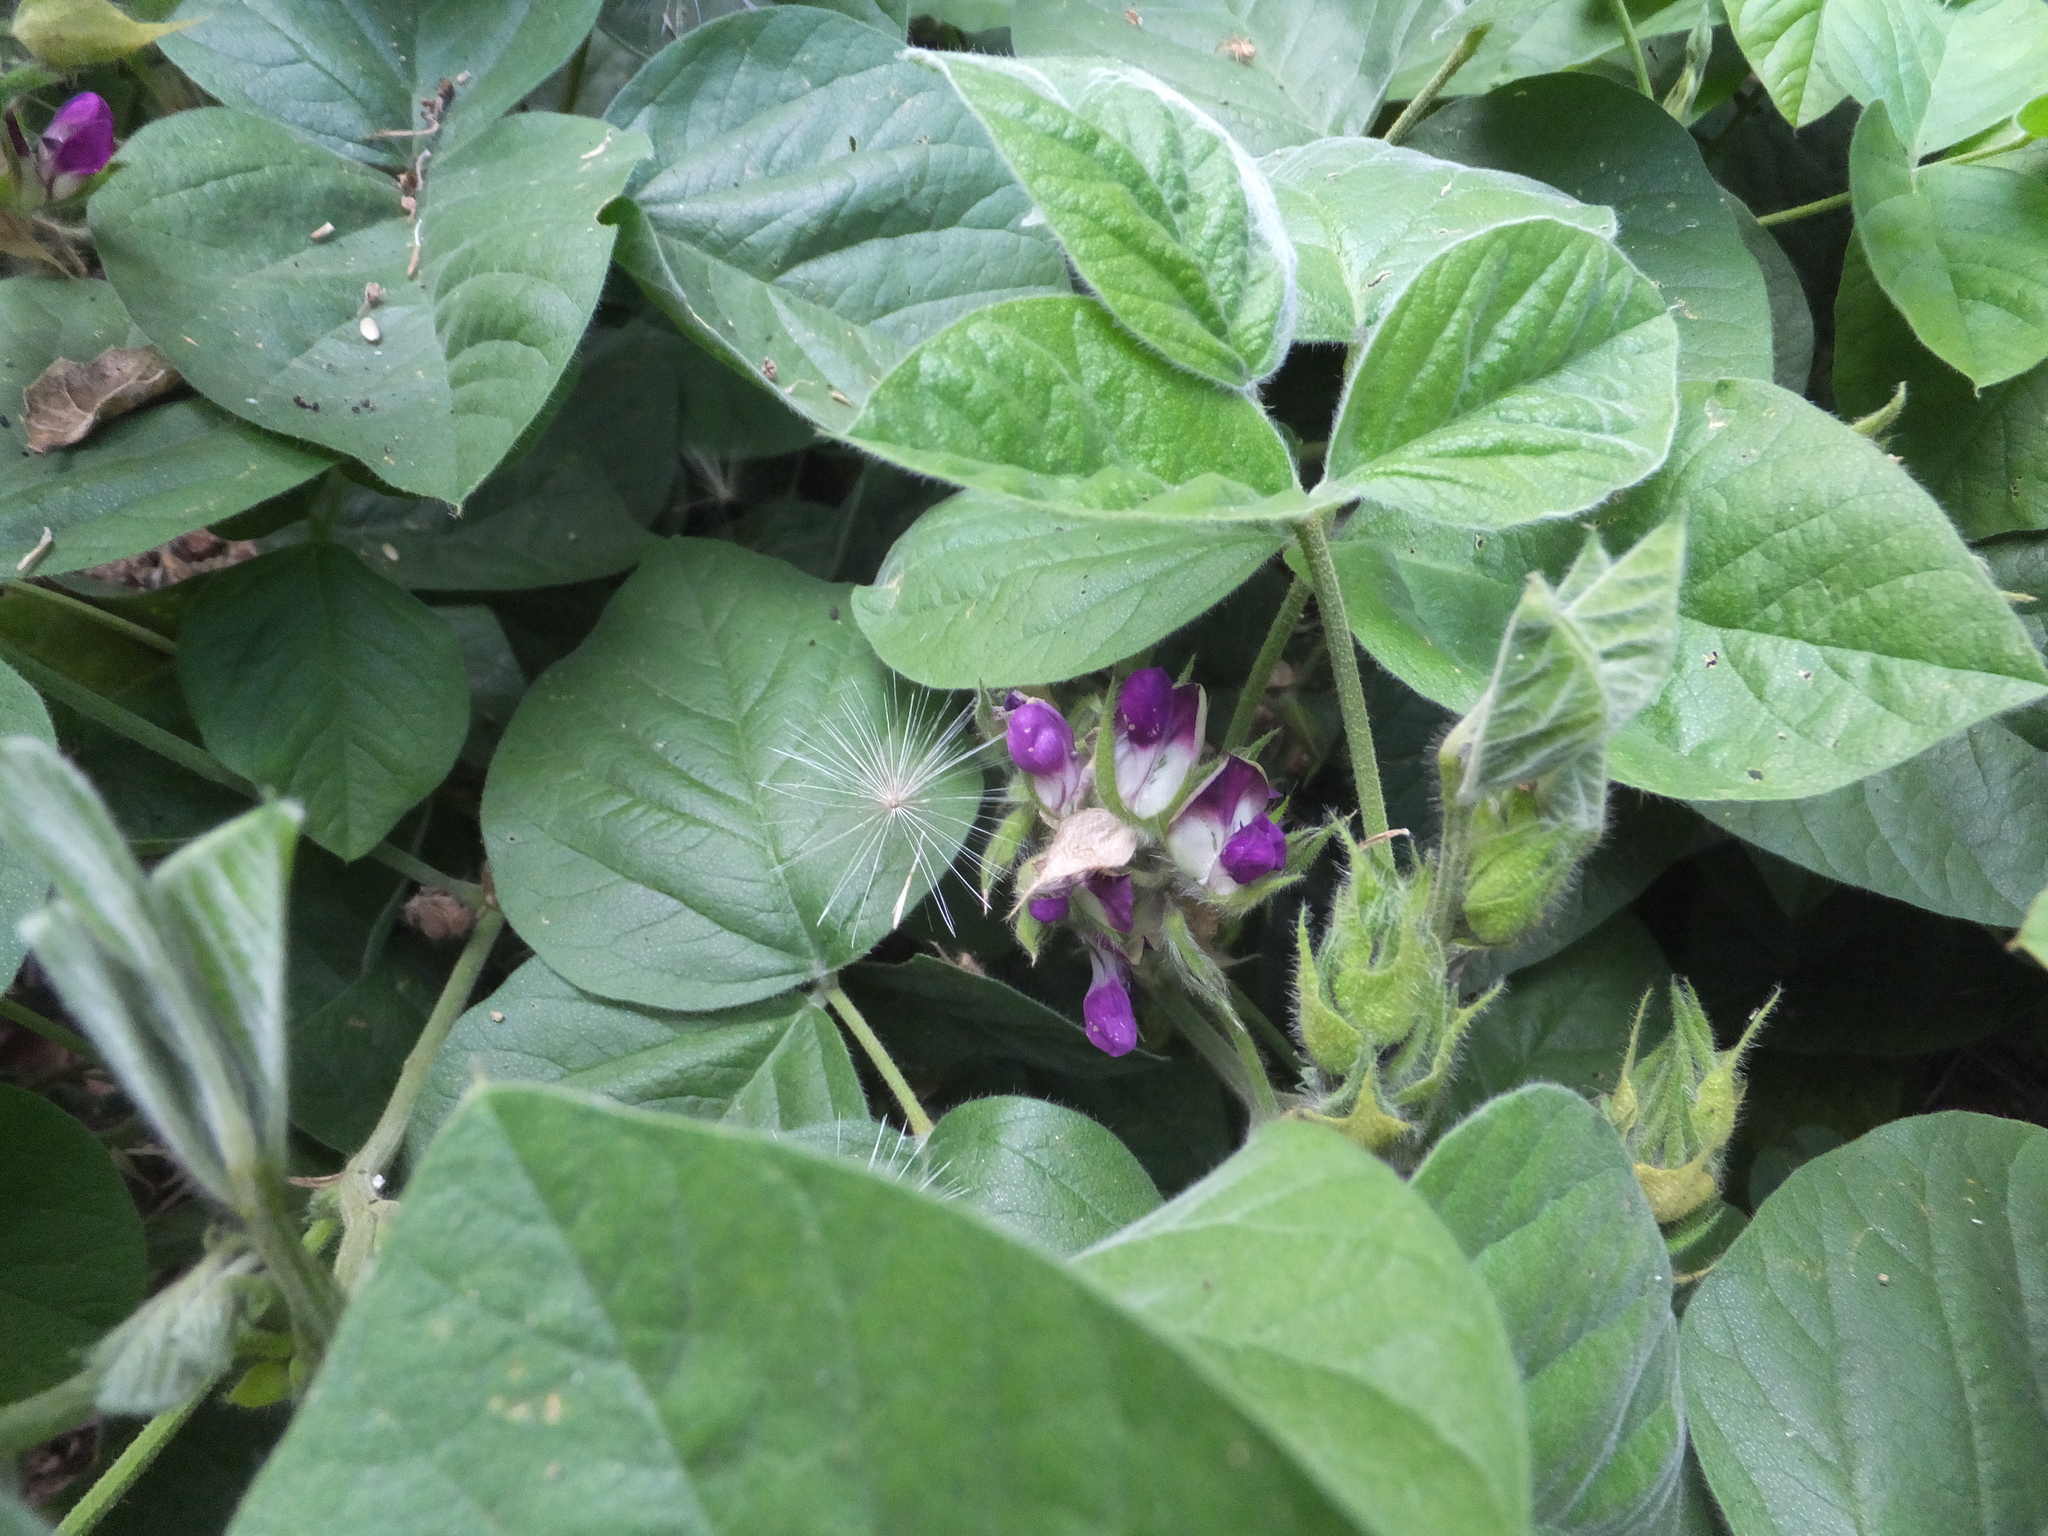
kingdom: Plantae
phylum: Tracheophyta
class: Magnoliopsida
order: Fabales
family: Fabaceae
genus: Hoita
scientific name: Hoita strobilina
